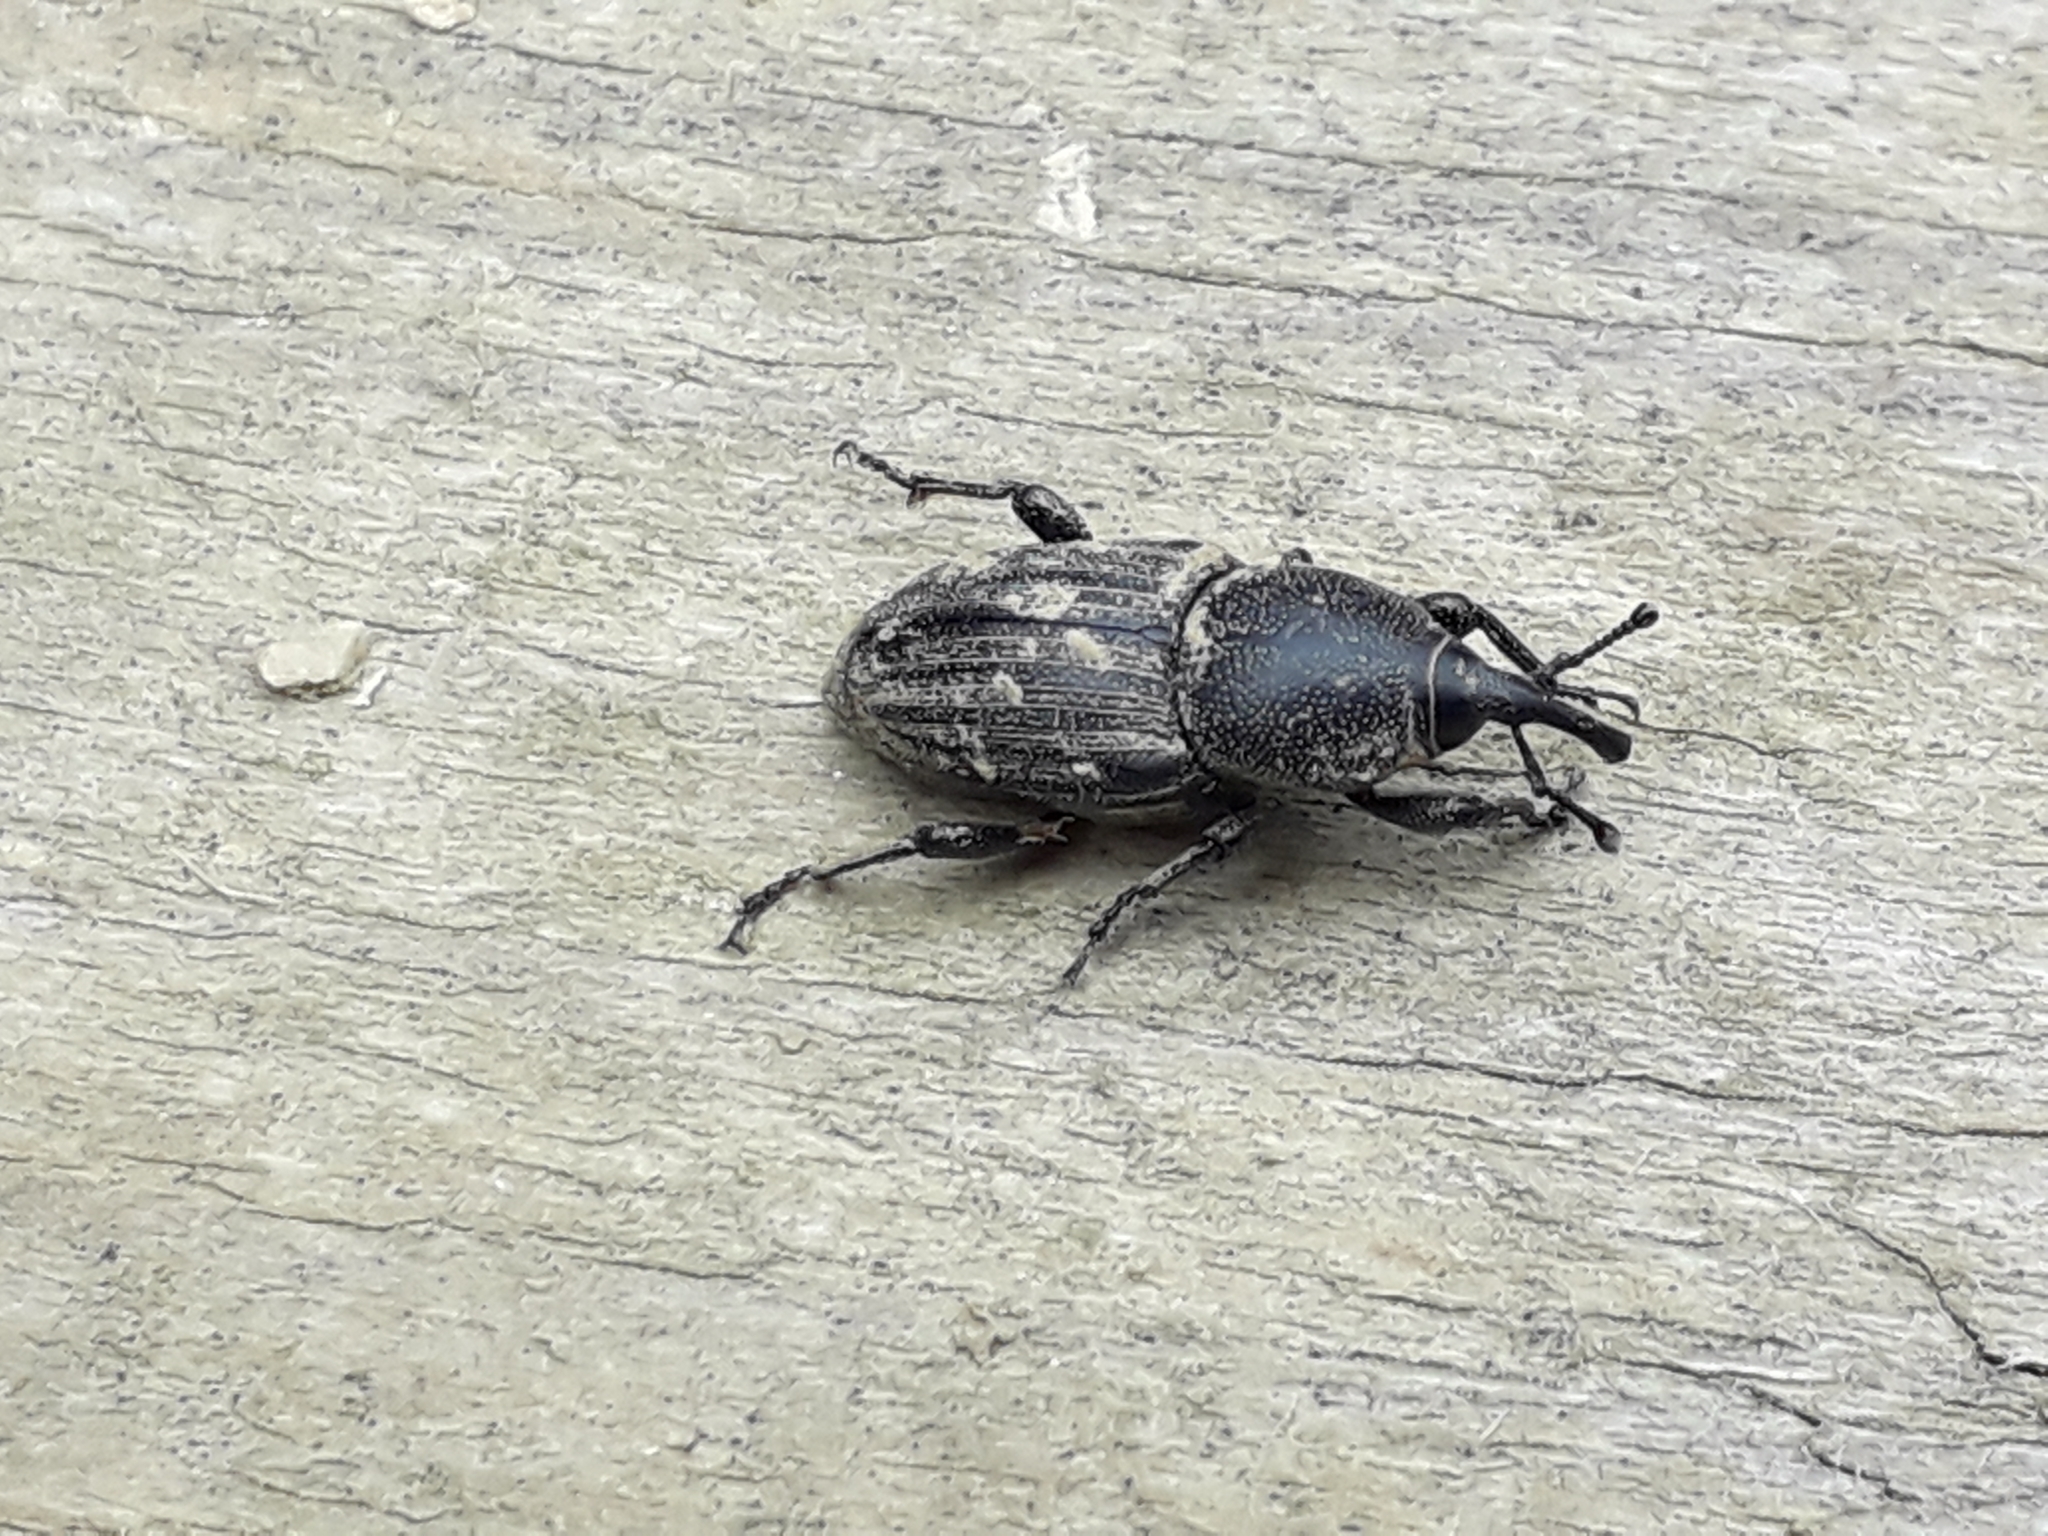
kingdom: Animalia
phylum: Arthropoda
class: Insecta
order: Coleoptera
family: Dryophthoridae
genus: Sphenophorus
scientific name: Sphenophorus striatopunctatus
